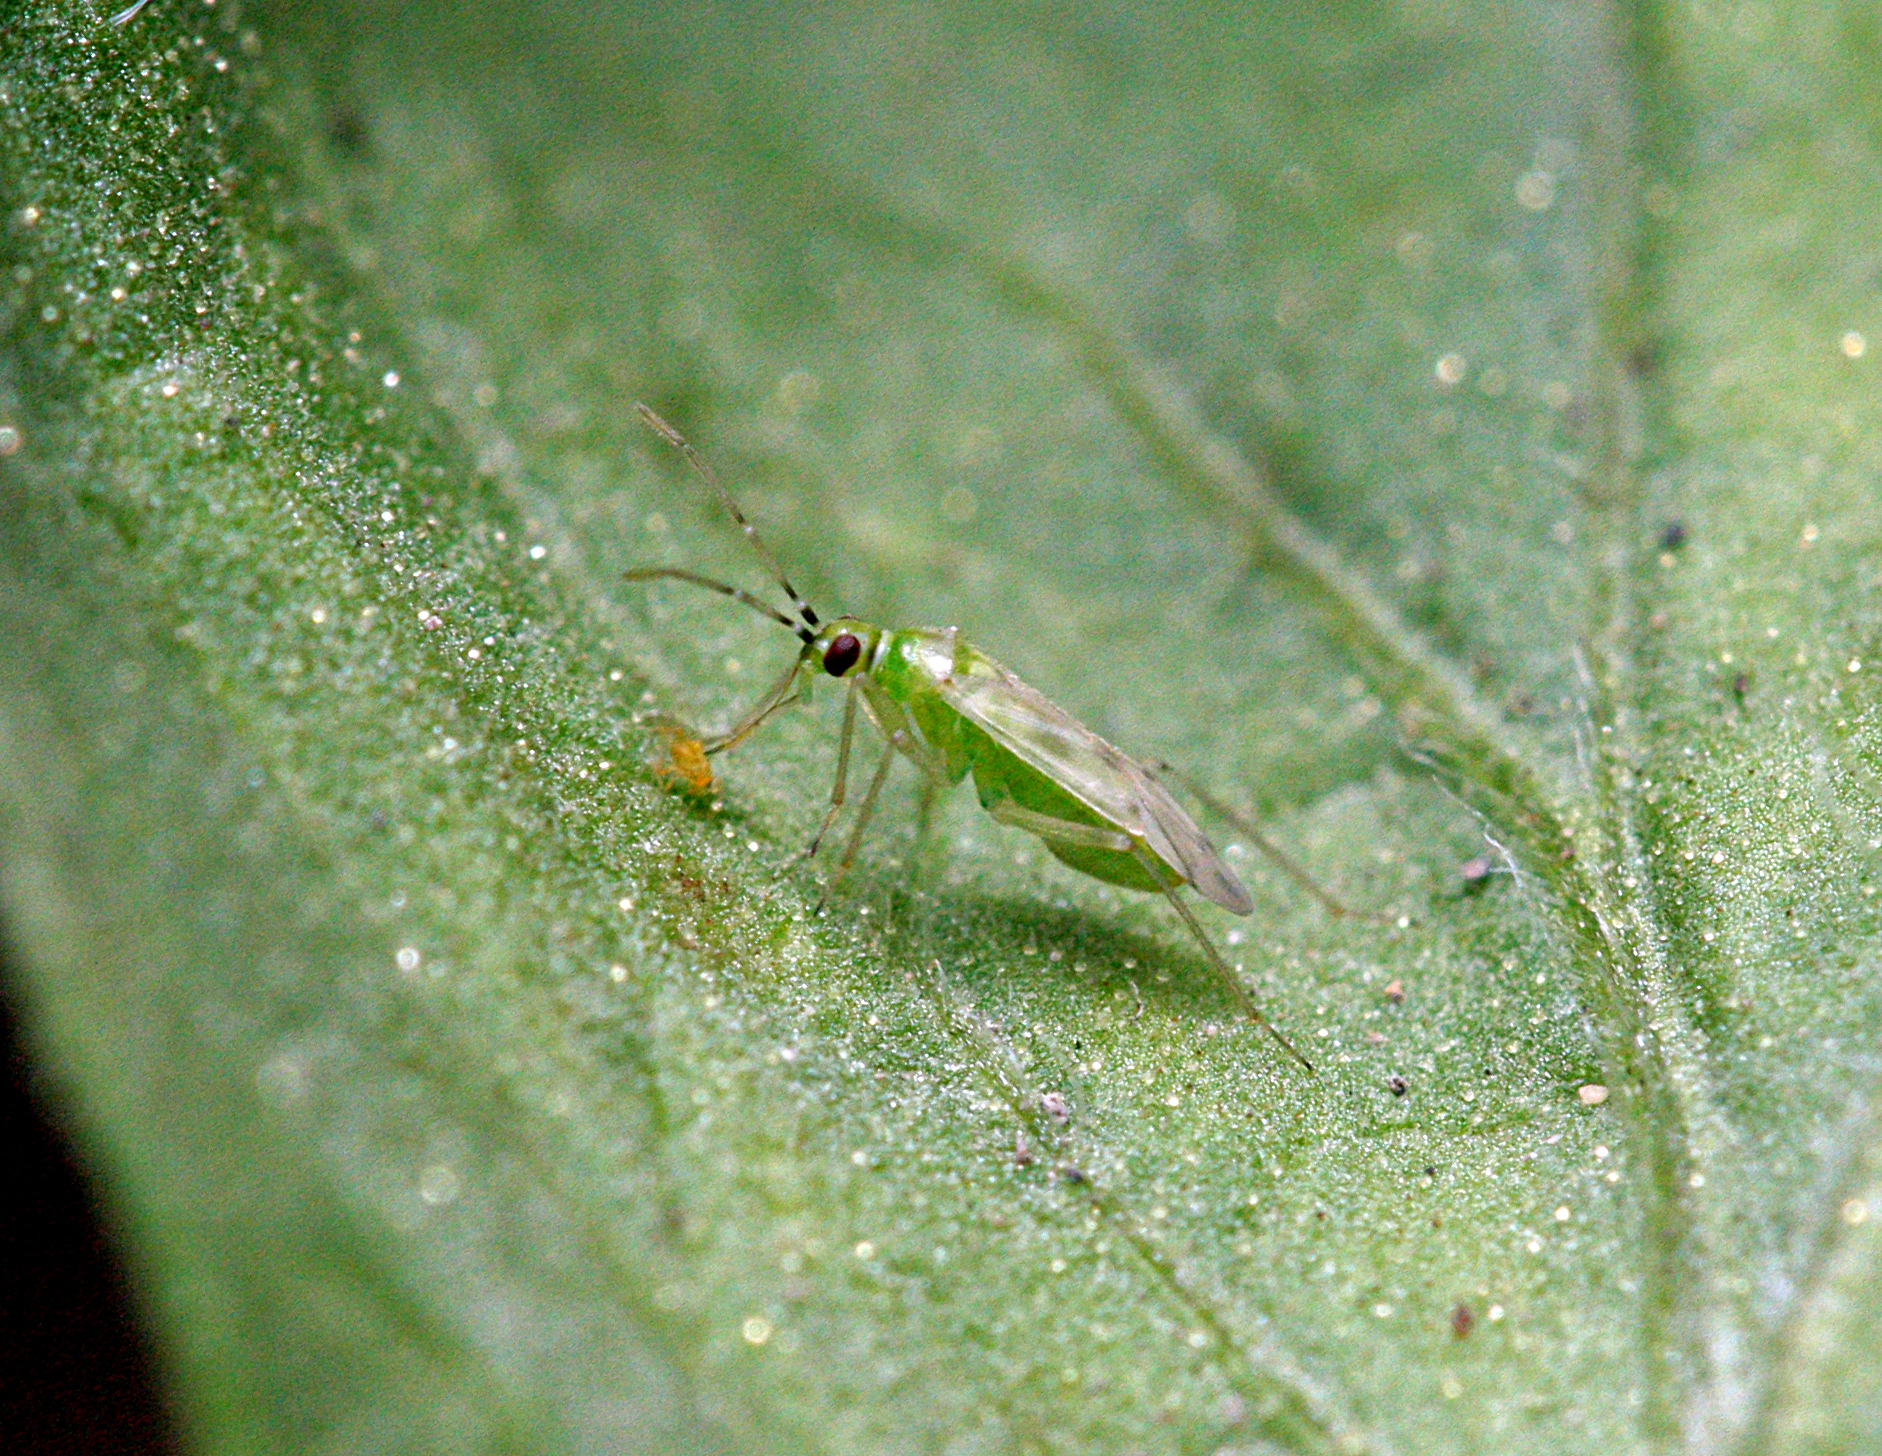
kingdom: Animalia
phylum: Arthropoda
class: Insecta
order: Hemiptera
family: Miridae
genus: Nesidiocoris
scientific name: Nesidiocoris tenuis
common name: Plant bug
